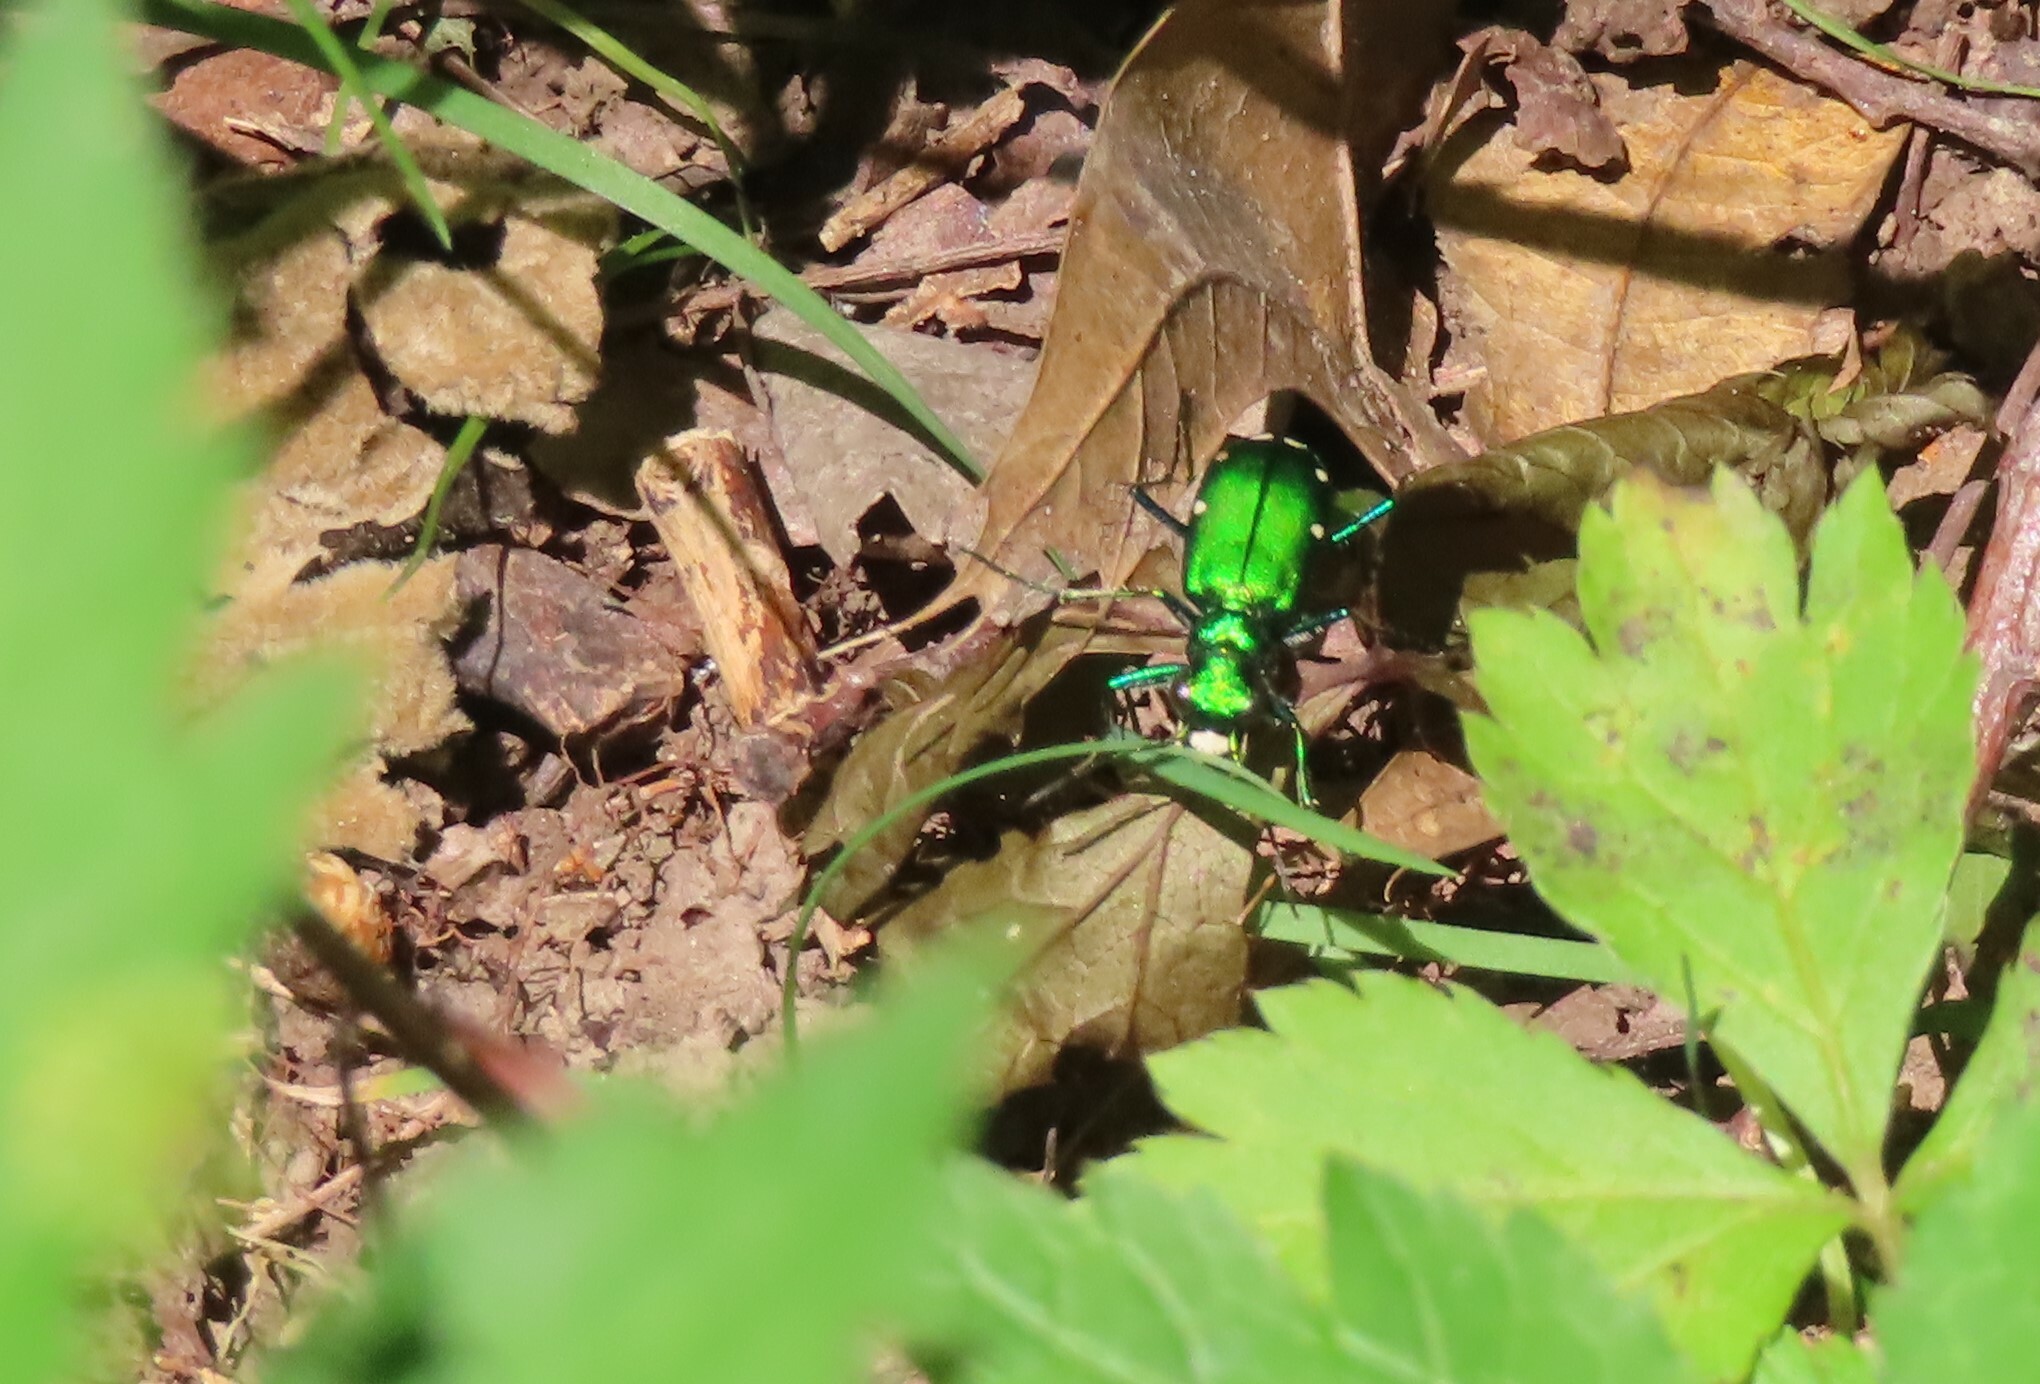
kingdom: Animalia
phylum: Arthropoda
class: Insecta
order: Coleoptera
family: Carabidae
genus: Cicindela
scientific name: Cicindela sexguttata
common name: Six-spotted tiger beetle
